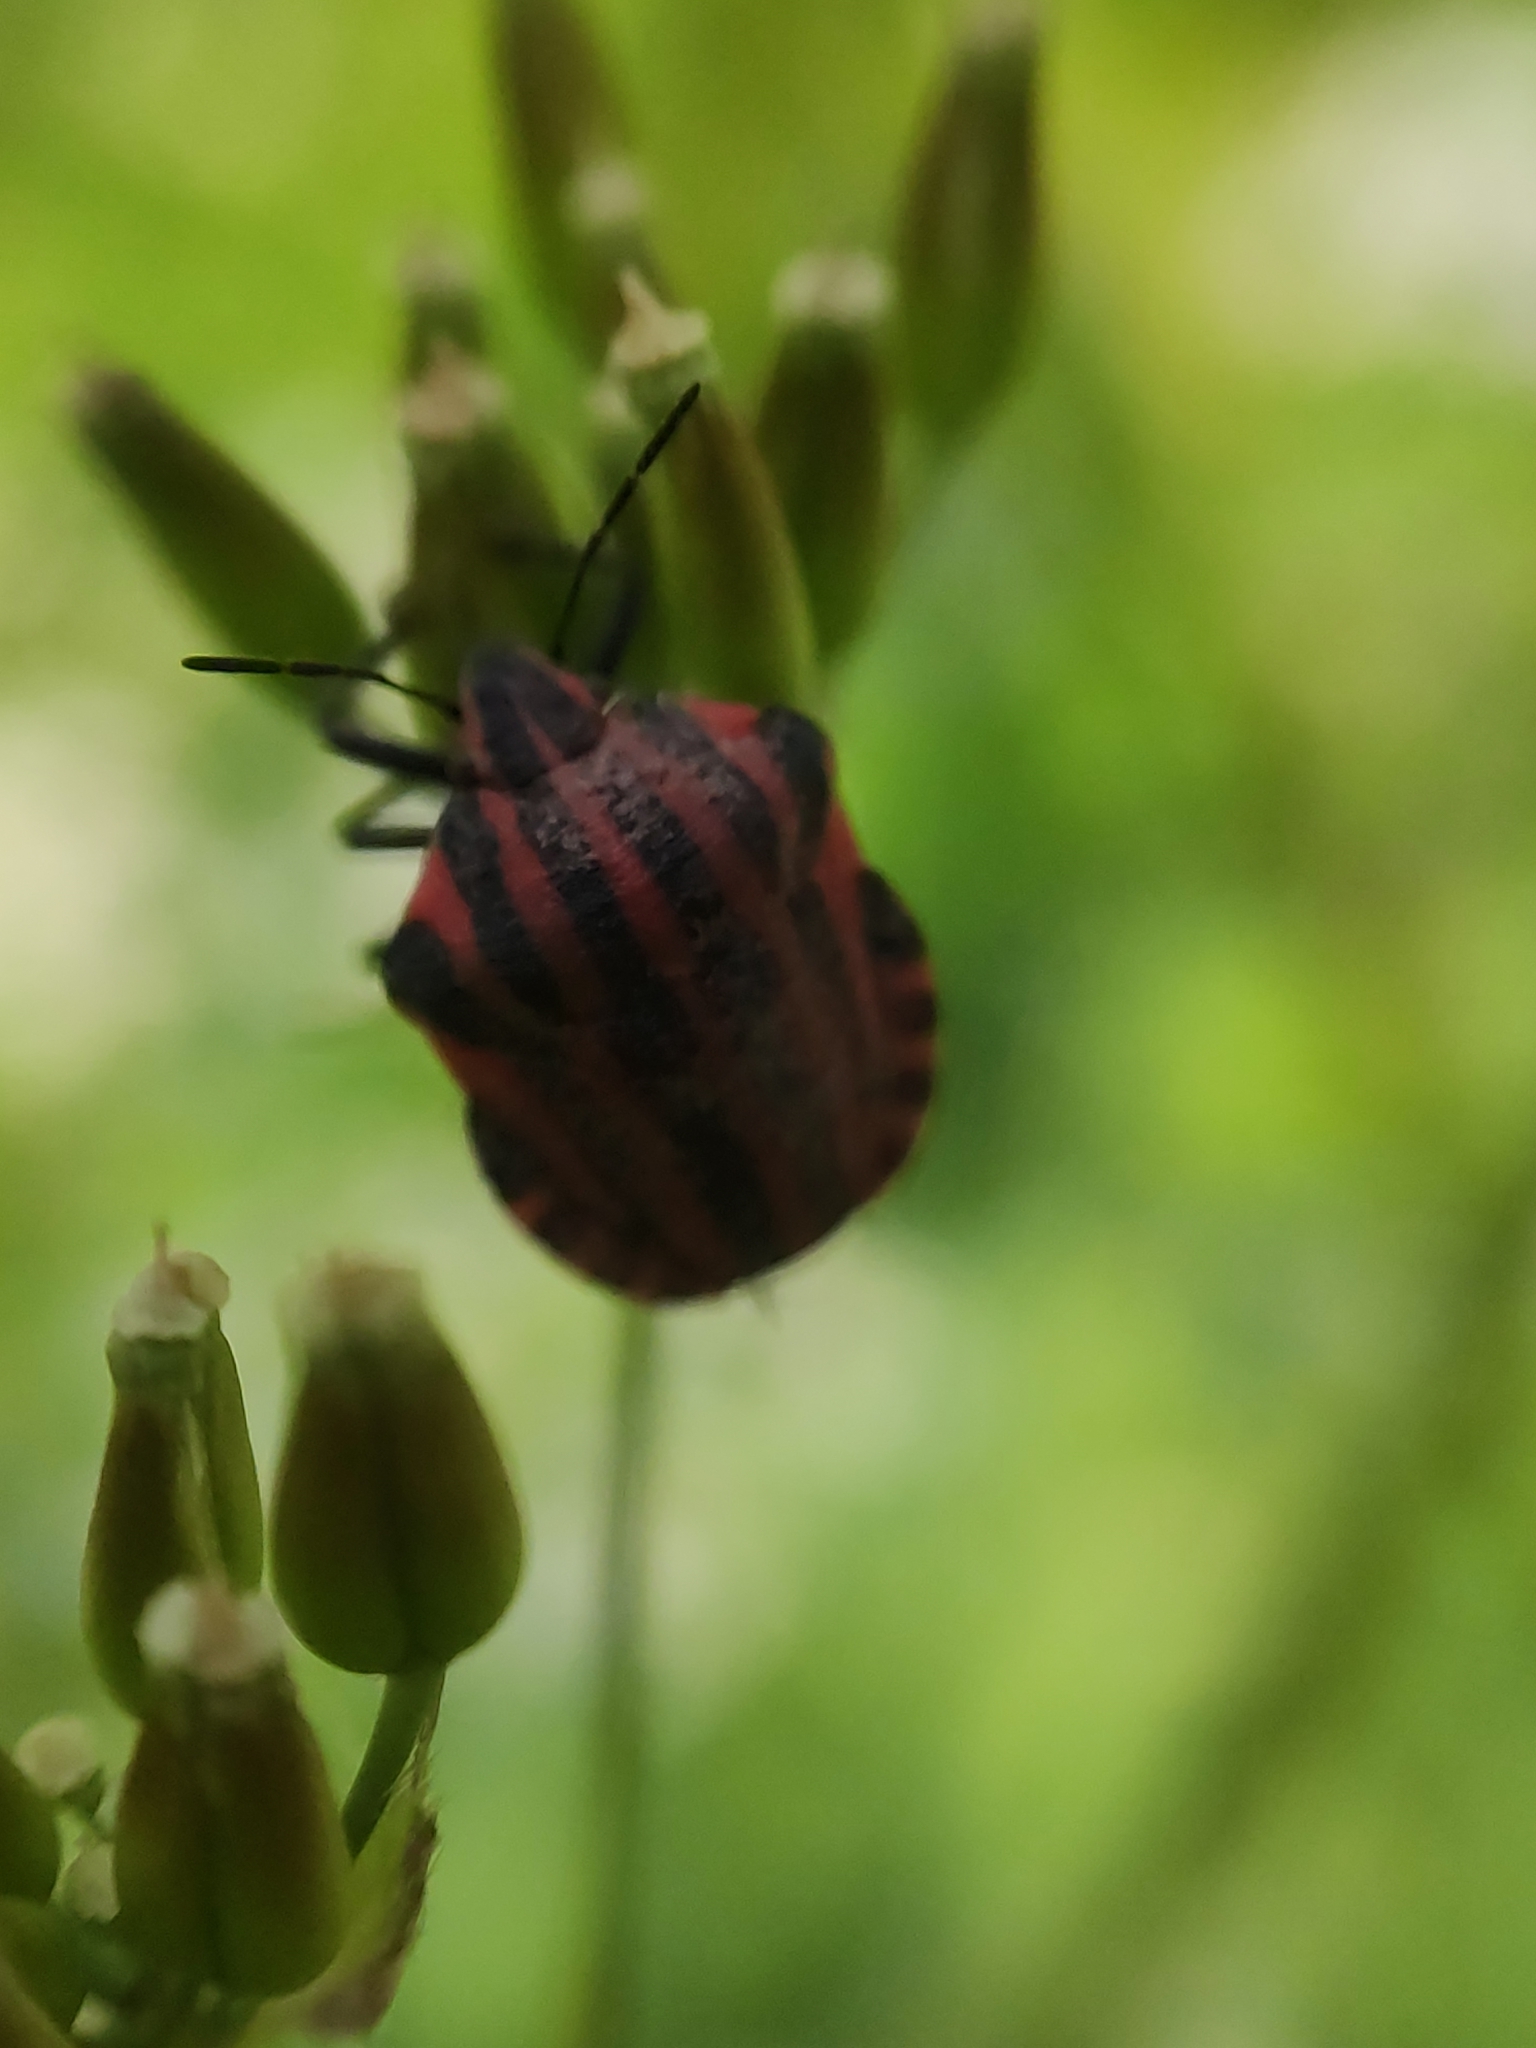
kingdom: Animalia
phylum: Arthropoda
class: Insecta
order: Hemiptera
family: Pentatomidae
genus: Graphosoma
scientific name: Graphosoma italicum
